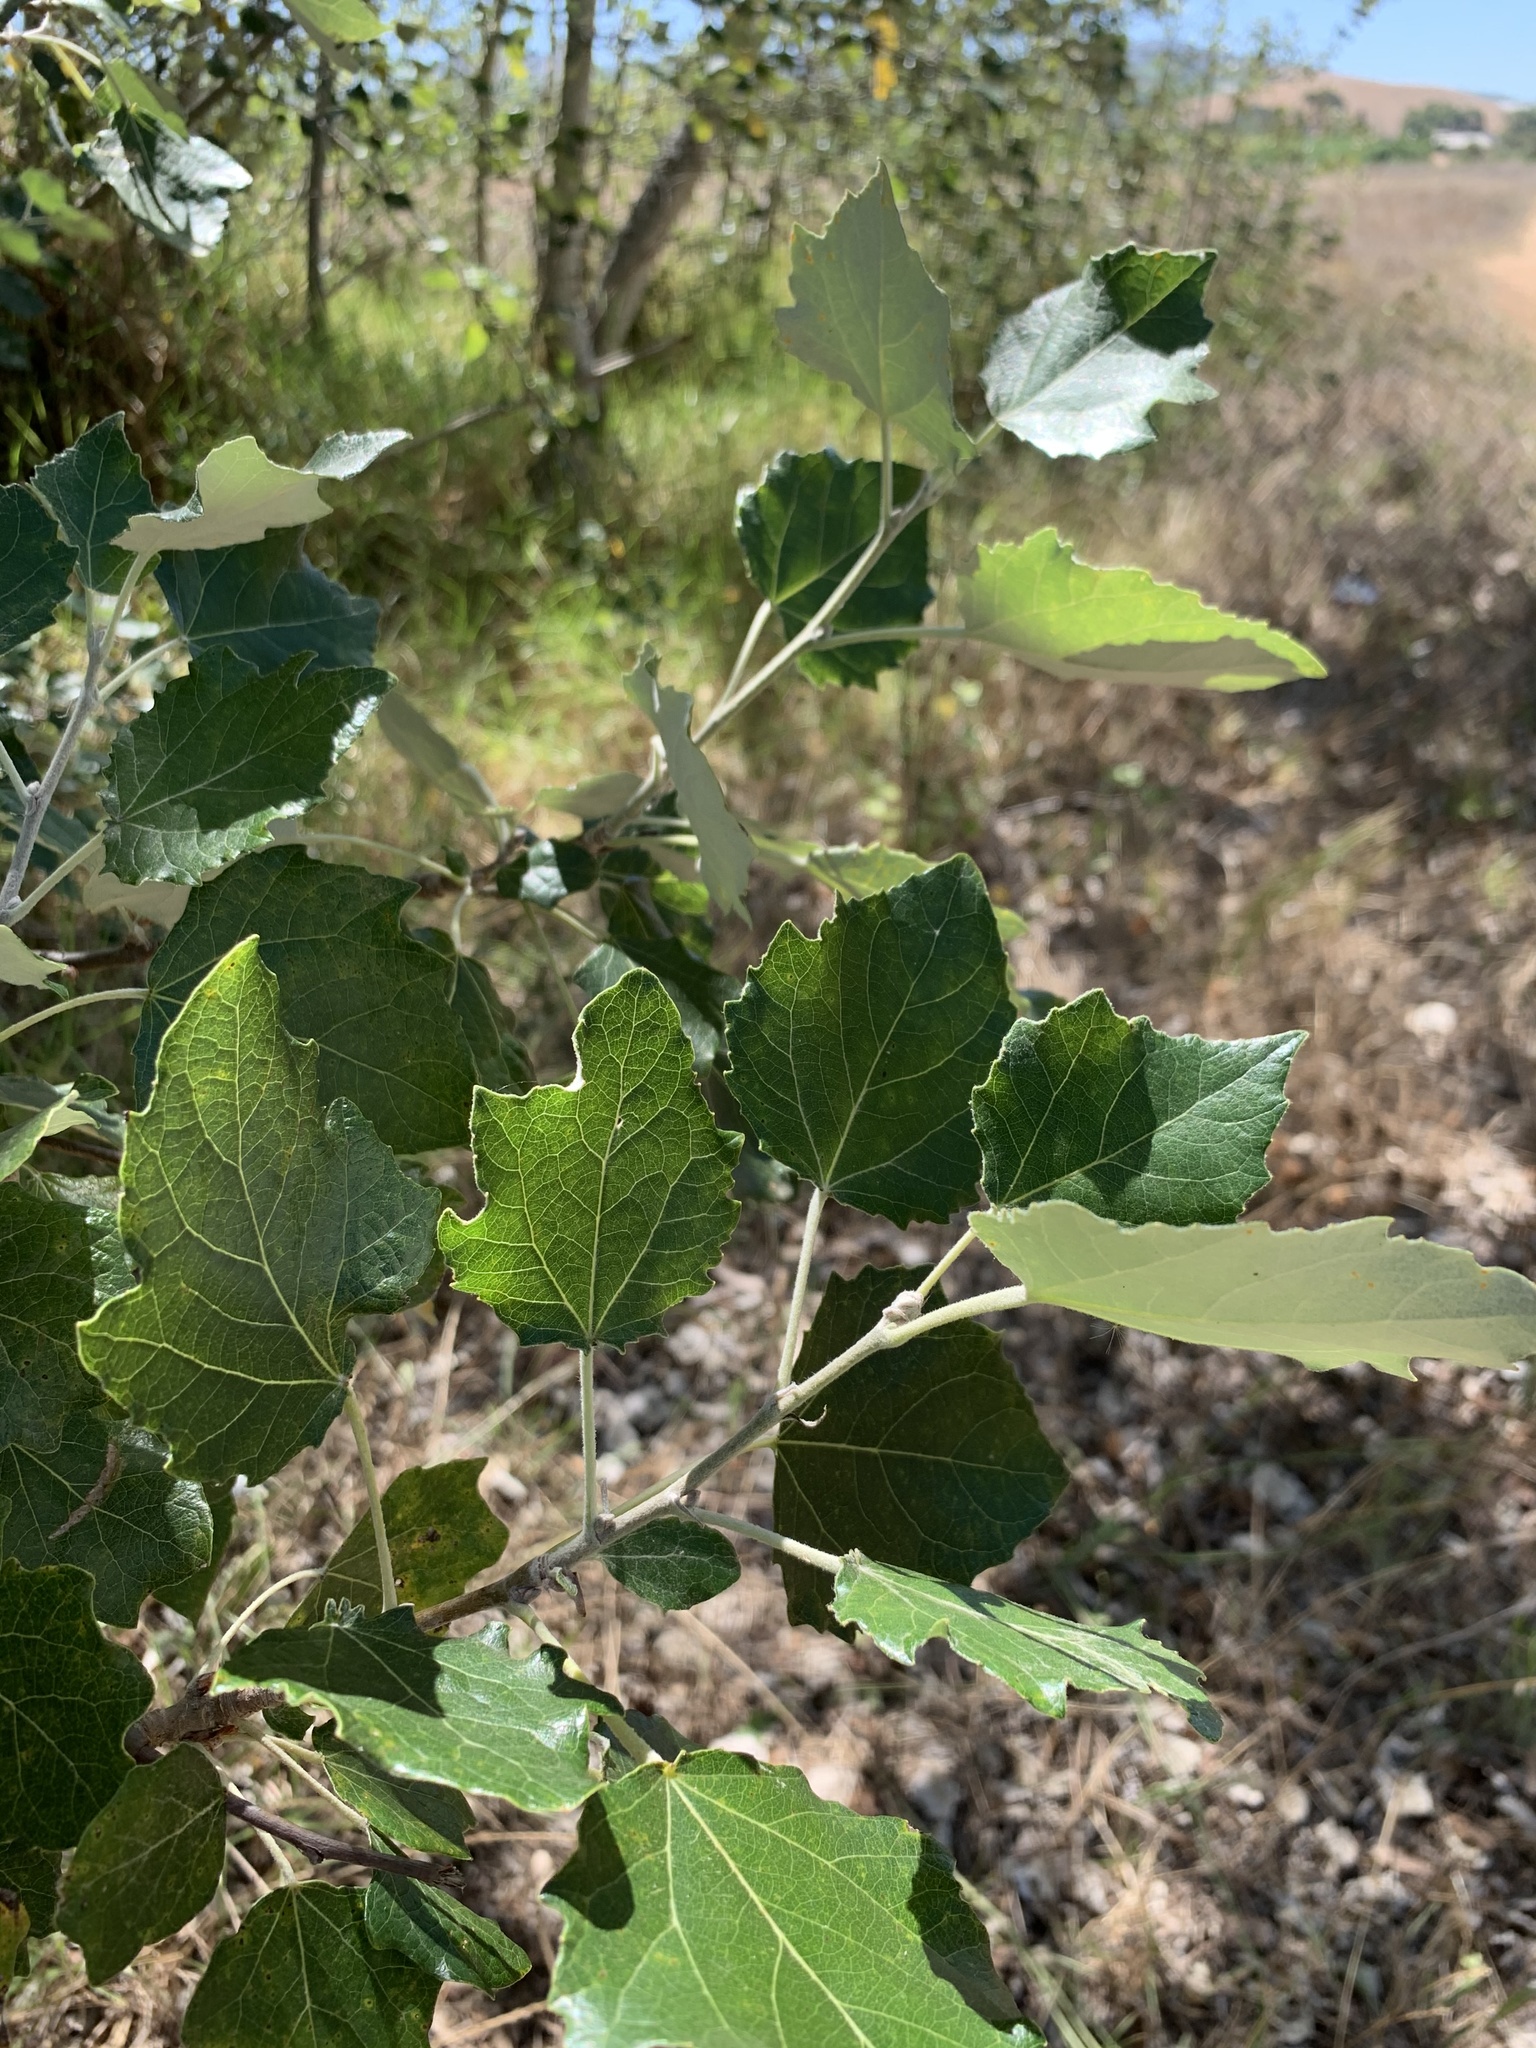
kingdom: Plantae
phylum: Tracheophyta
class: Magnoliopsida
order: Malpighiales
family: Salicaceae
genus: Populus
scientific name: Populus canescens
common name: Gray poplar
